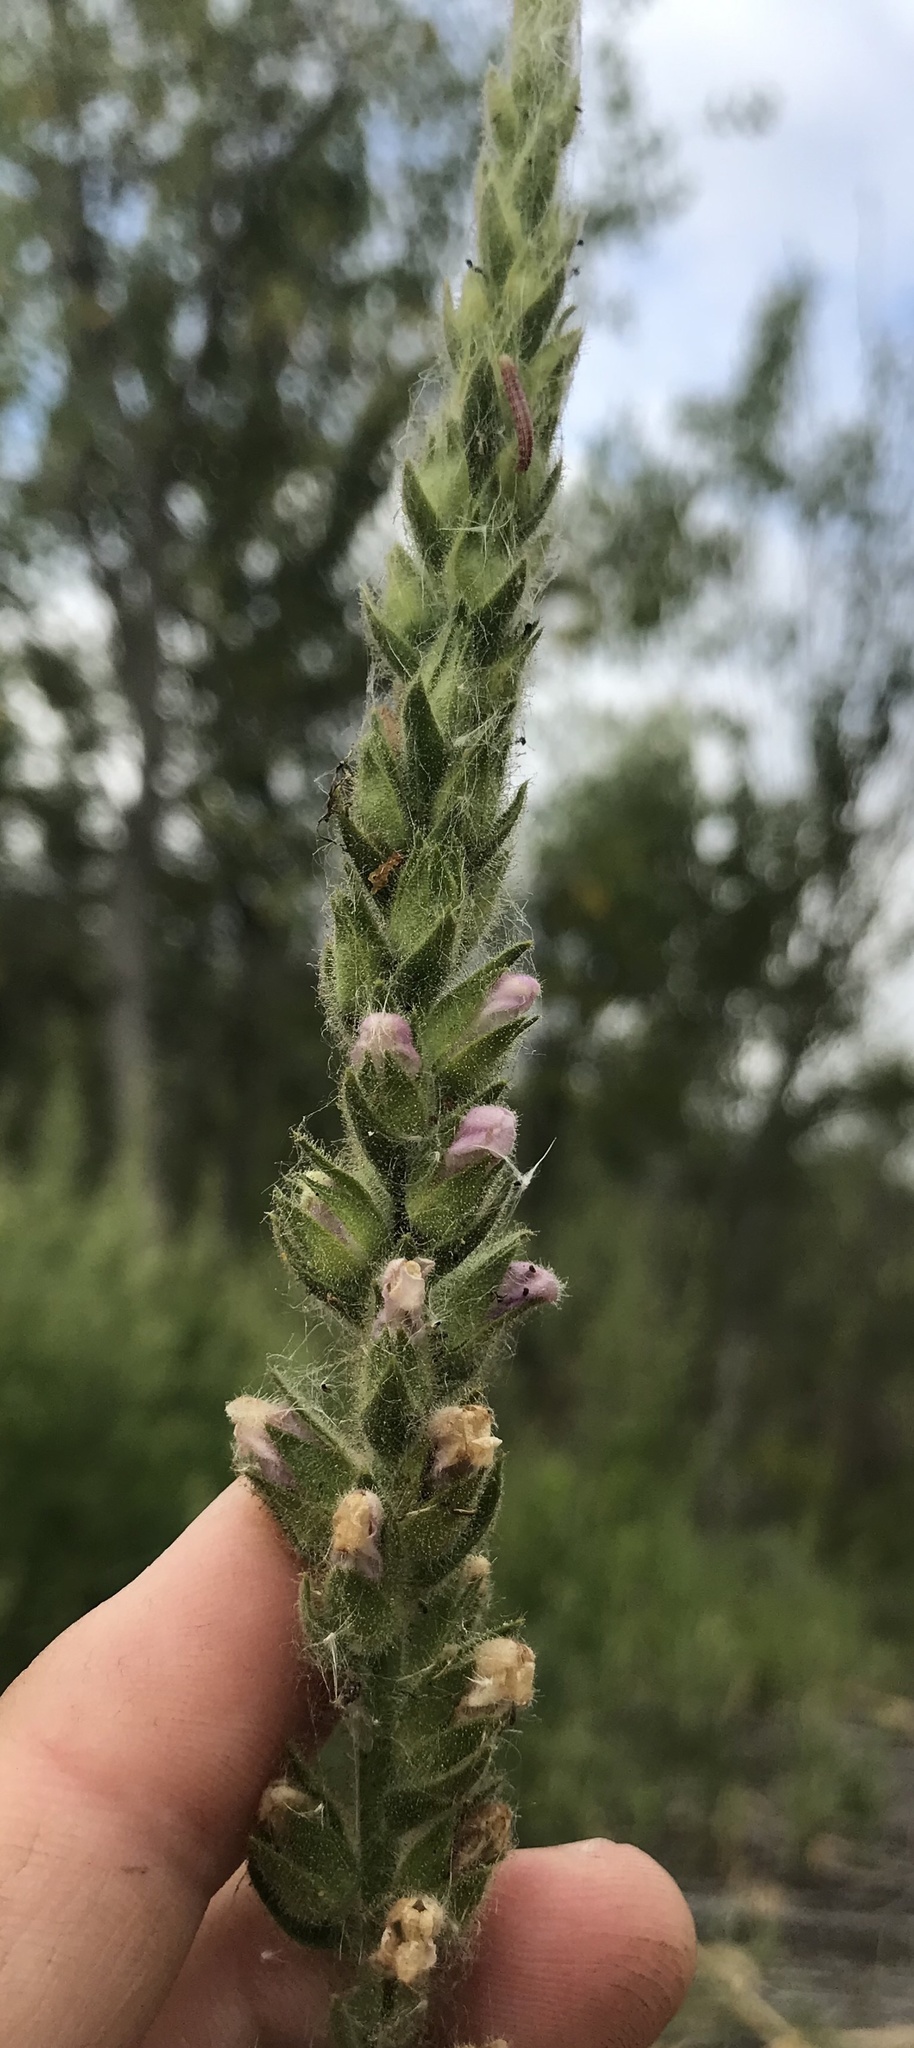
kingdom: Plantae
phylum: Tracheophyta
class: Magnoliopsida
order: Lamiales
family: Plantaginaceae
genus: Sairocarpus
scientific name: Sairocarpus multiflorus
